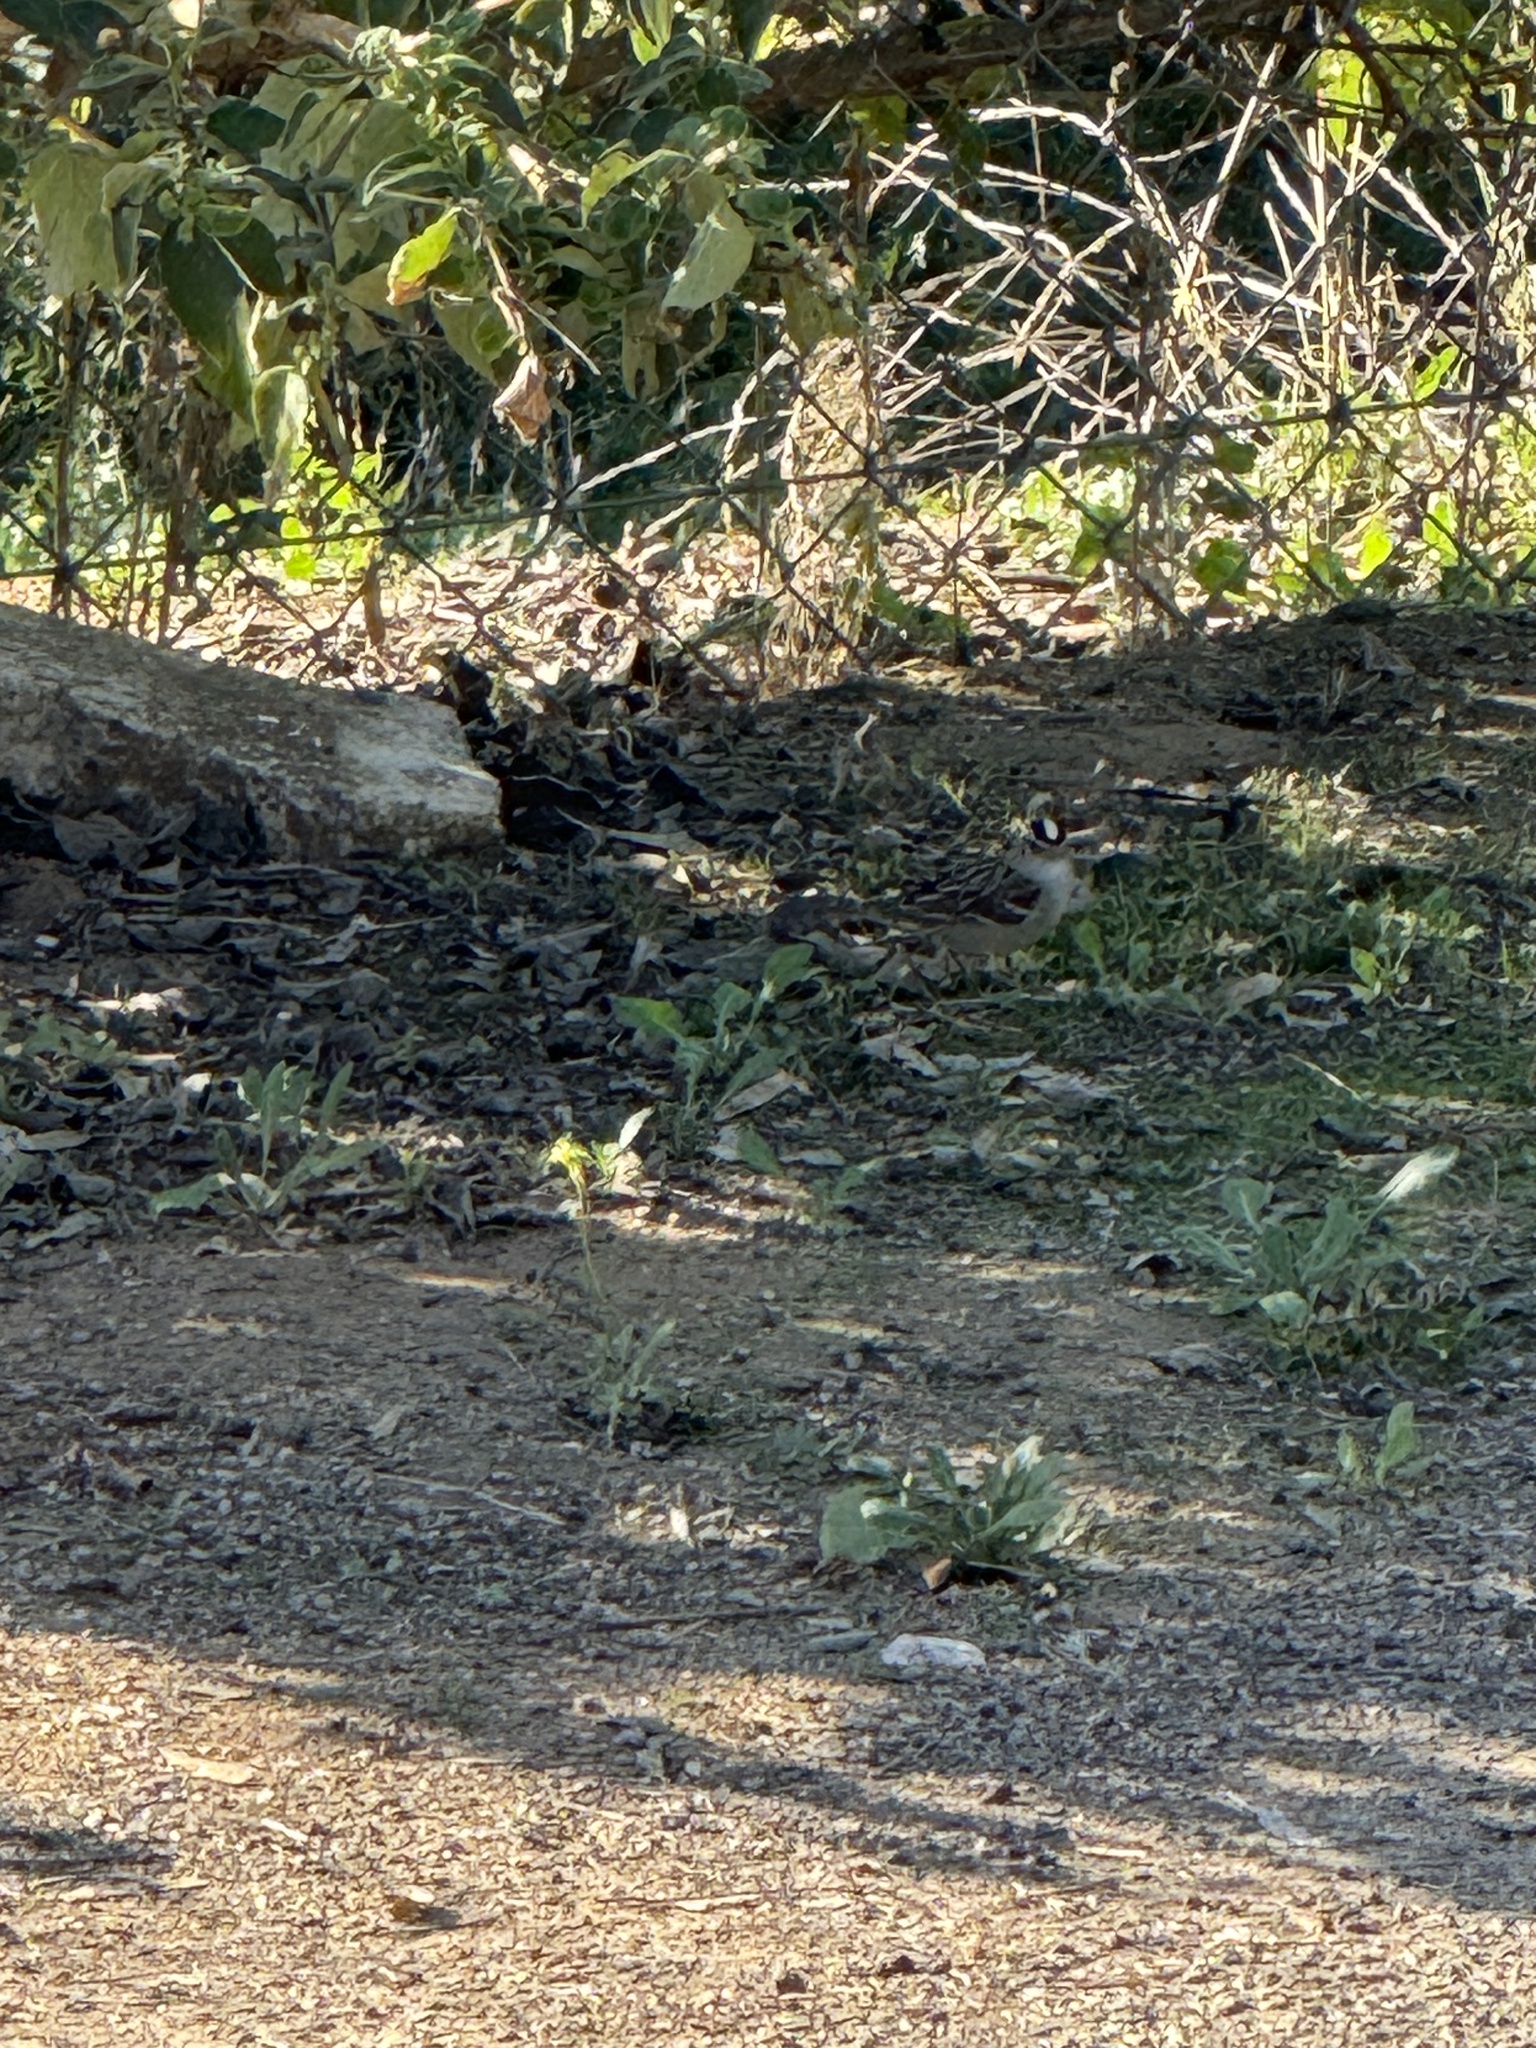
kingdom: Animalia
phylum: Chordata
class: Aves
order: Passeriformes
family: Passerellidae
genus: Zonotrichia
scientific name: Zonotrichia leucophrys
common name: White-crowned sparrow
